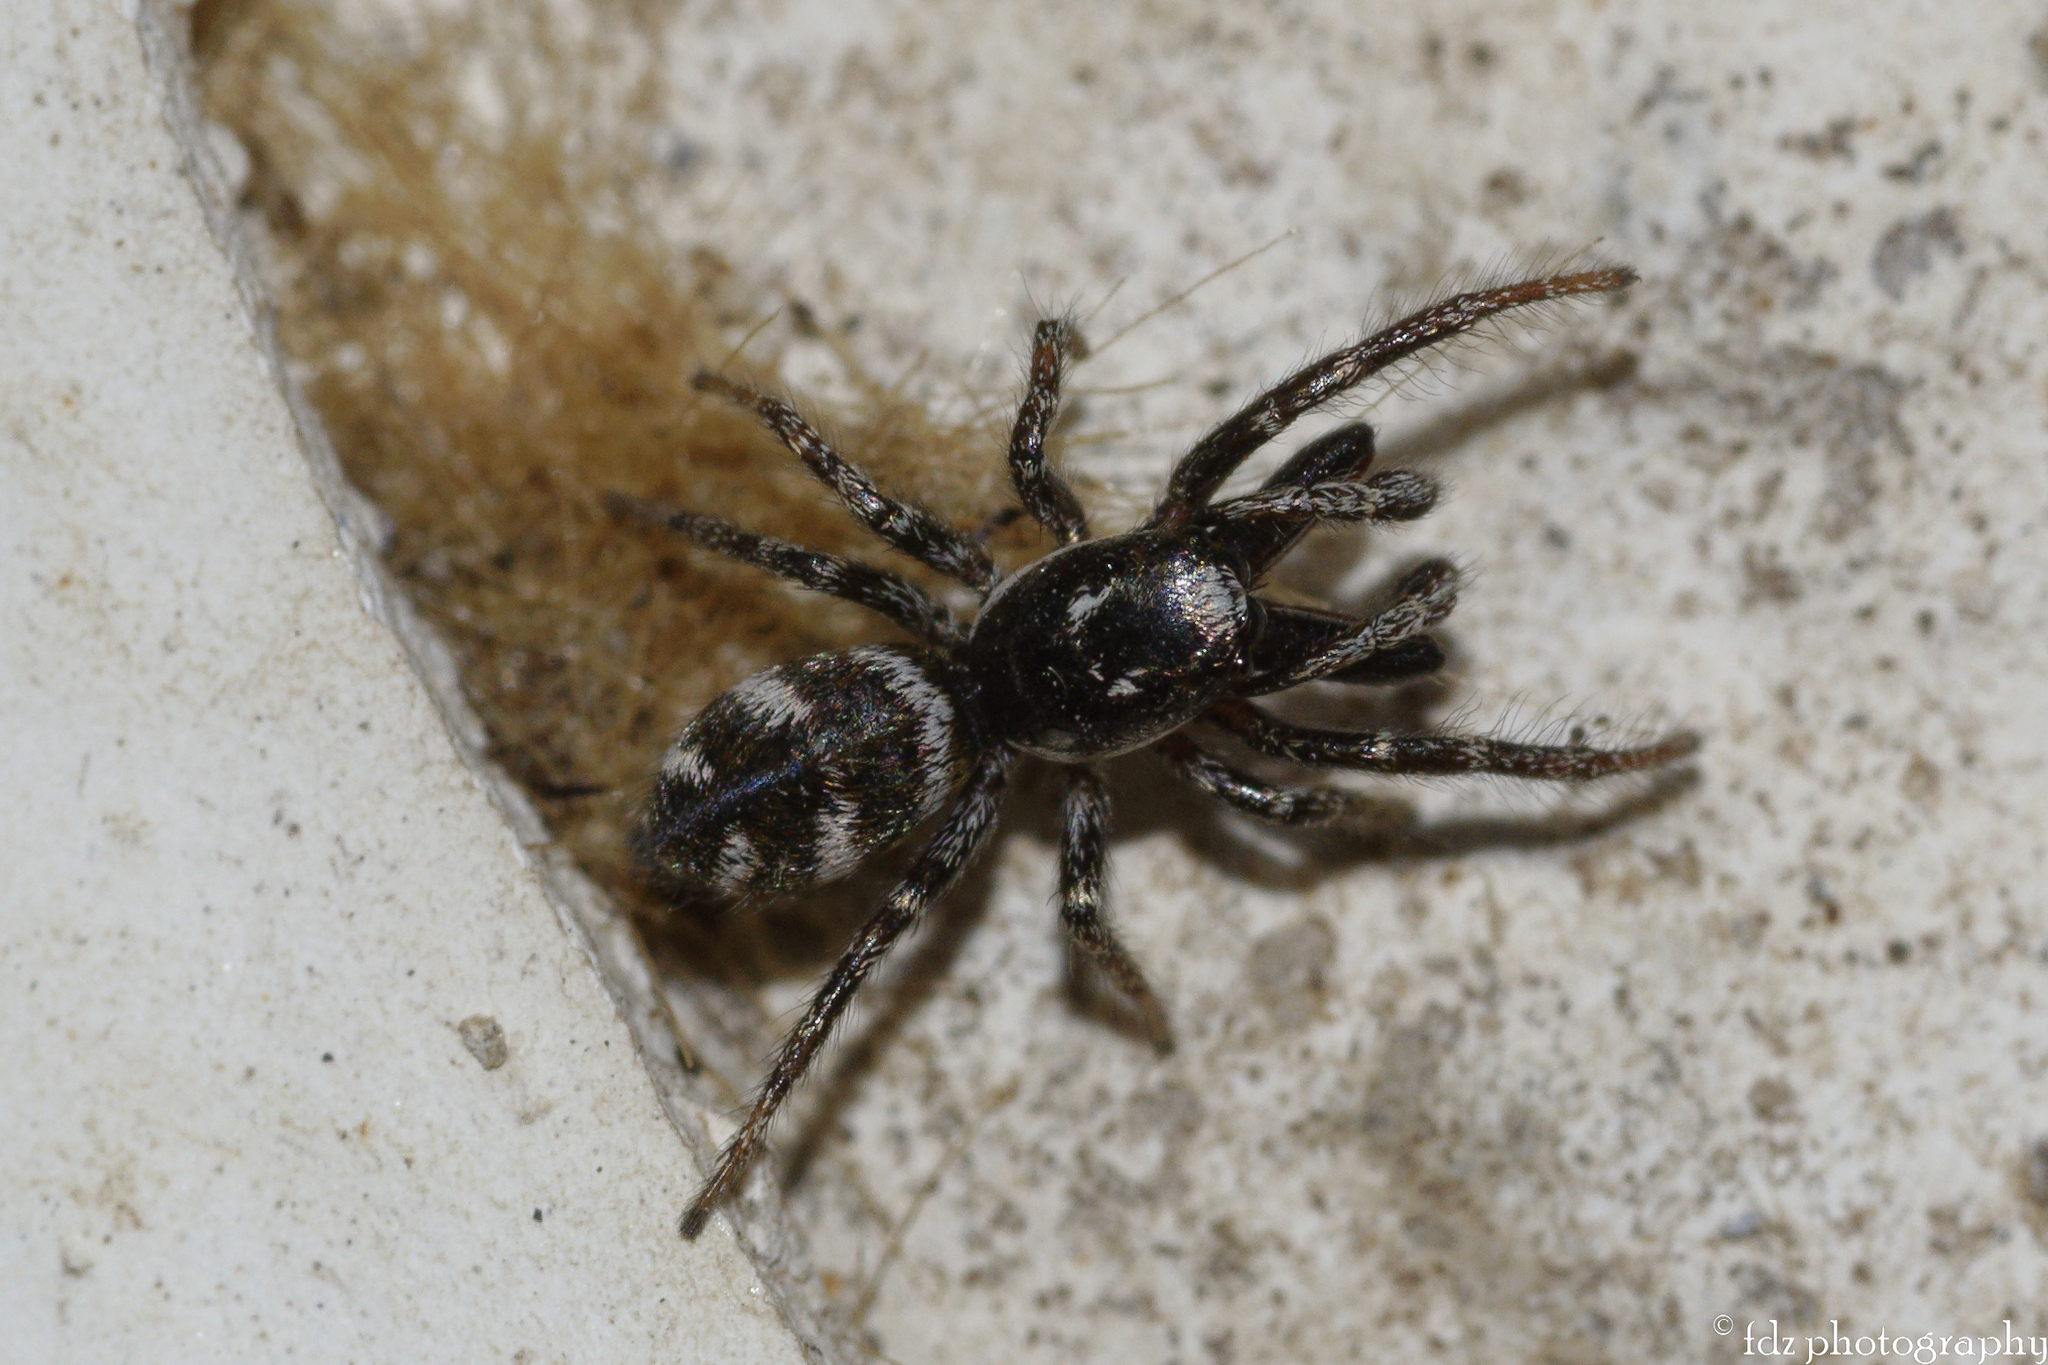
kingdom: Animalia
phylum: Arthropoda
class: Arachnida
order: Araneae
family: Salticidae
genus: Salticus
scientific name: Salticus scenicus
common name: Zebra jumper
